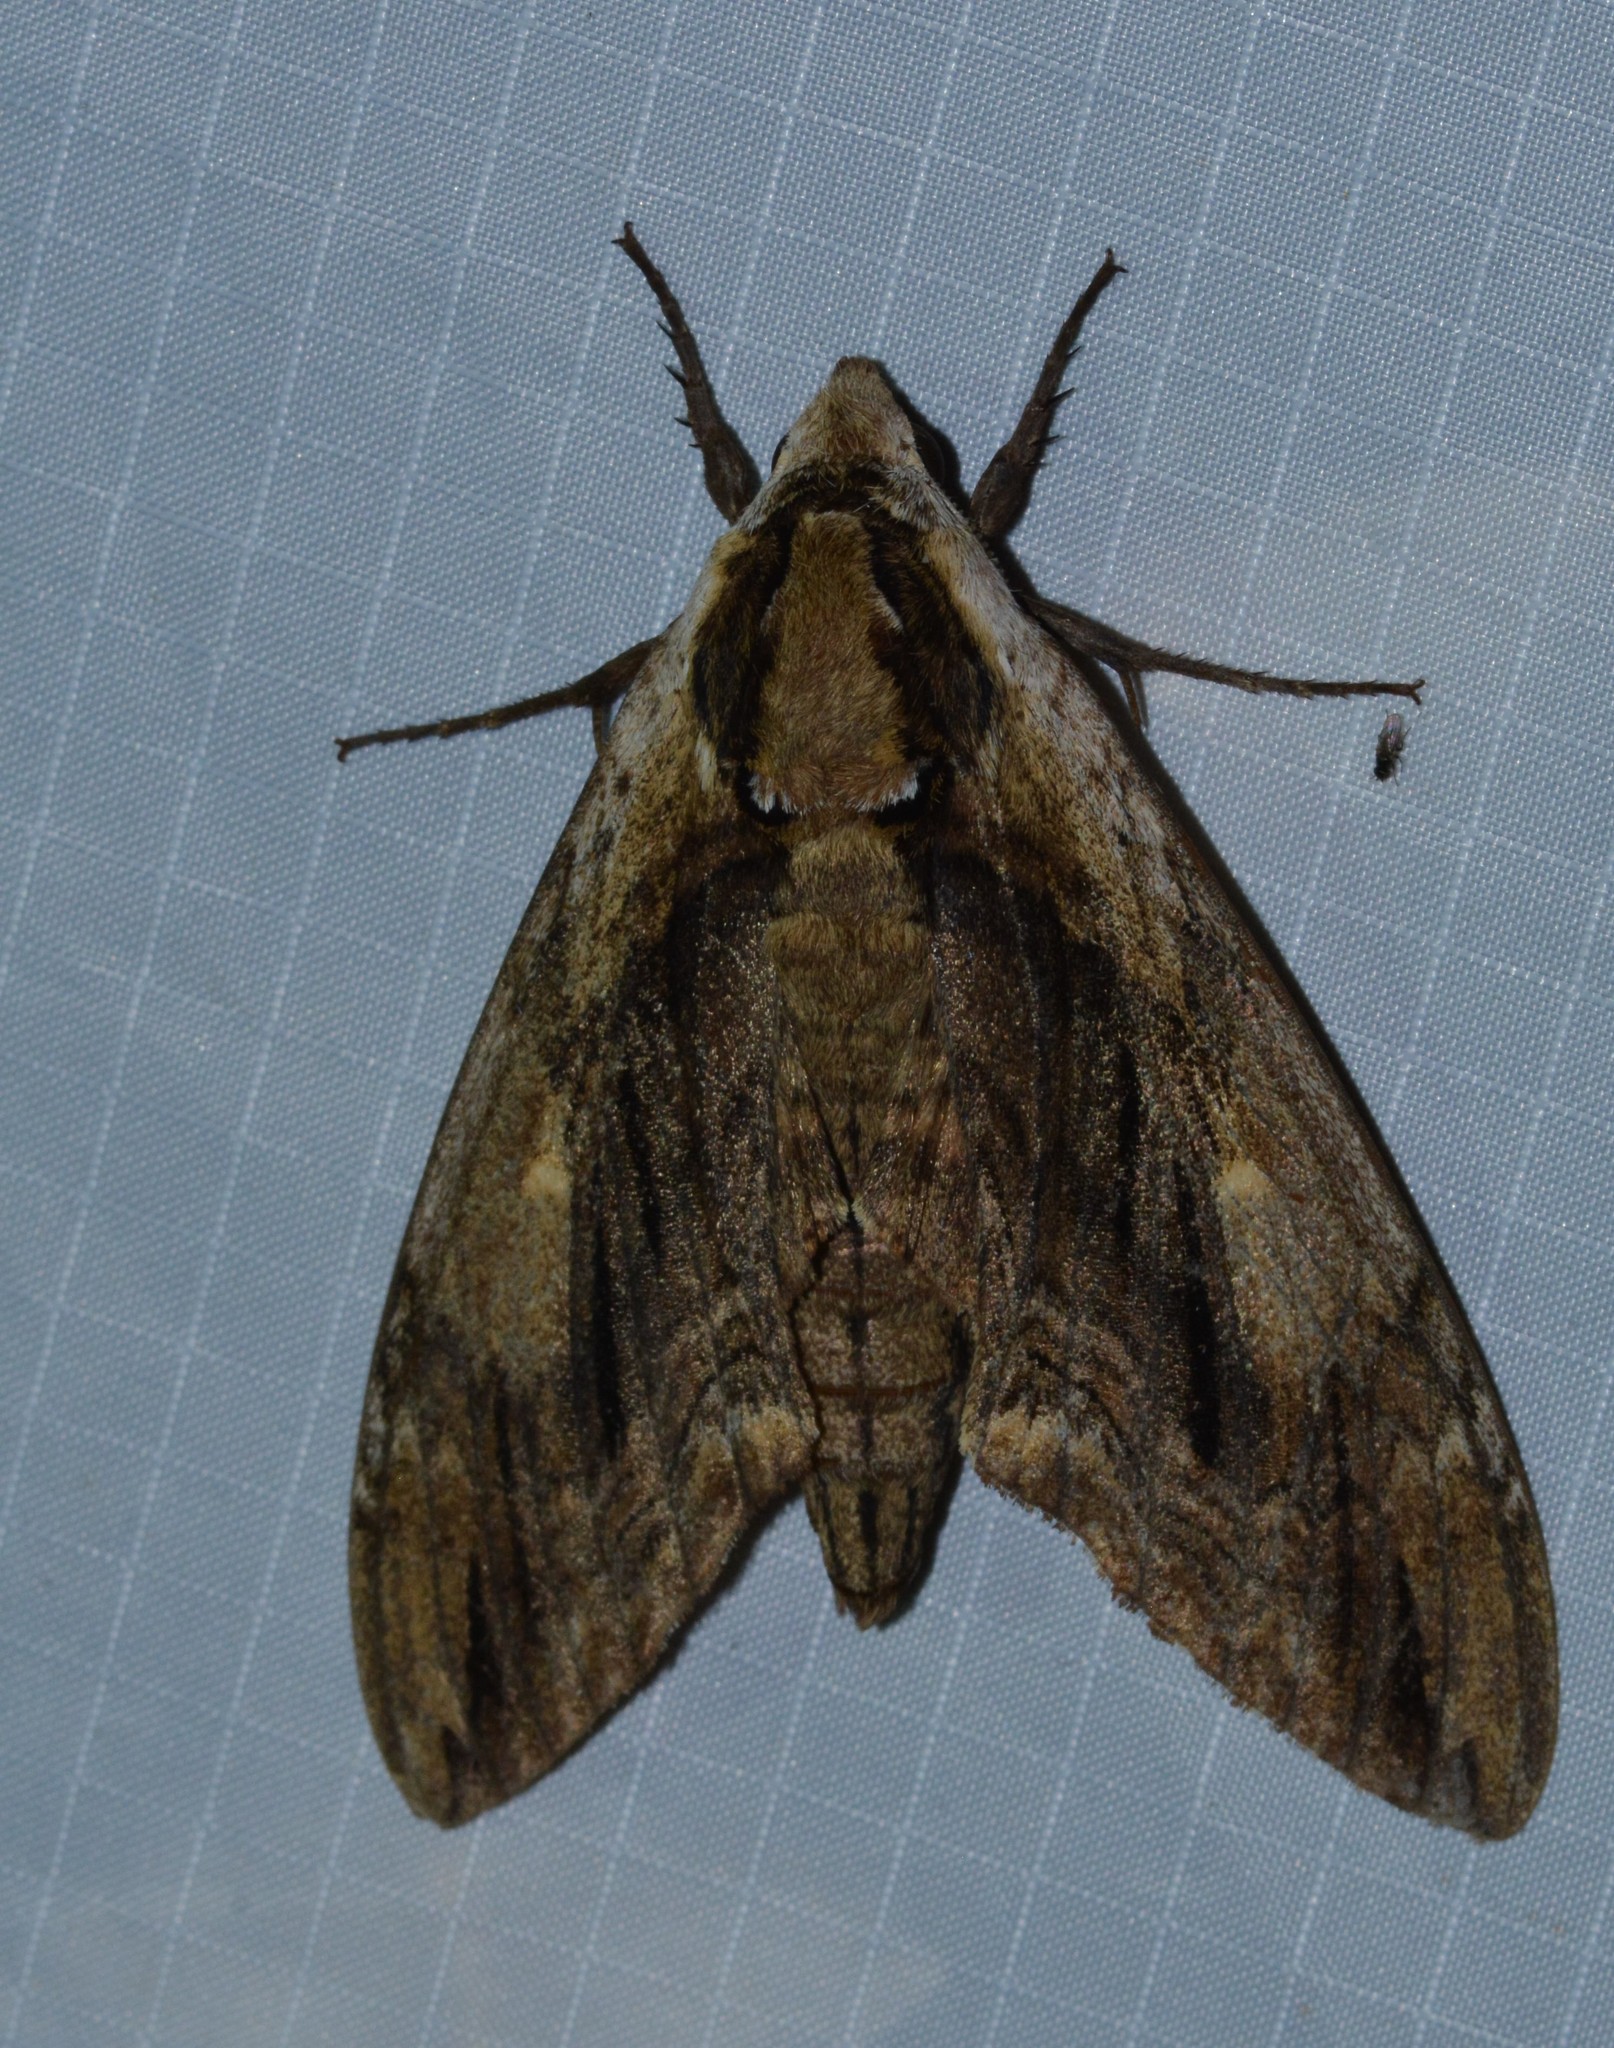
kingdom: Animalia
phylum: Arthropoda
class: Insecta
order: Lepidoptera
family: Sphingidae
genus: Ceratomia
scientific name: Ceratomia amyntor
